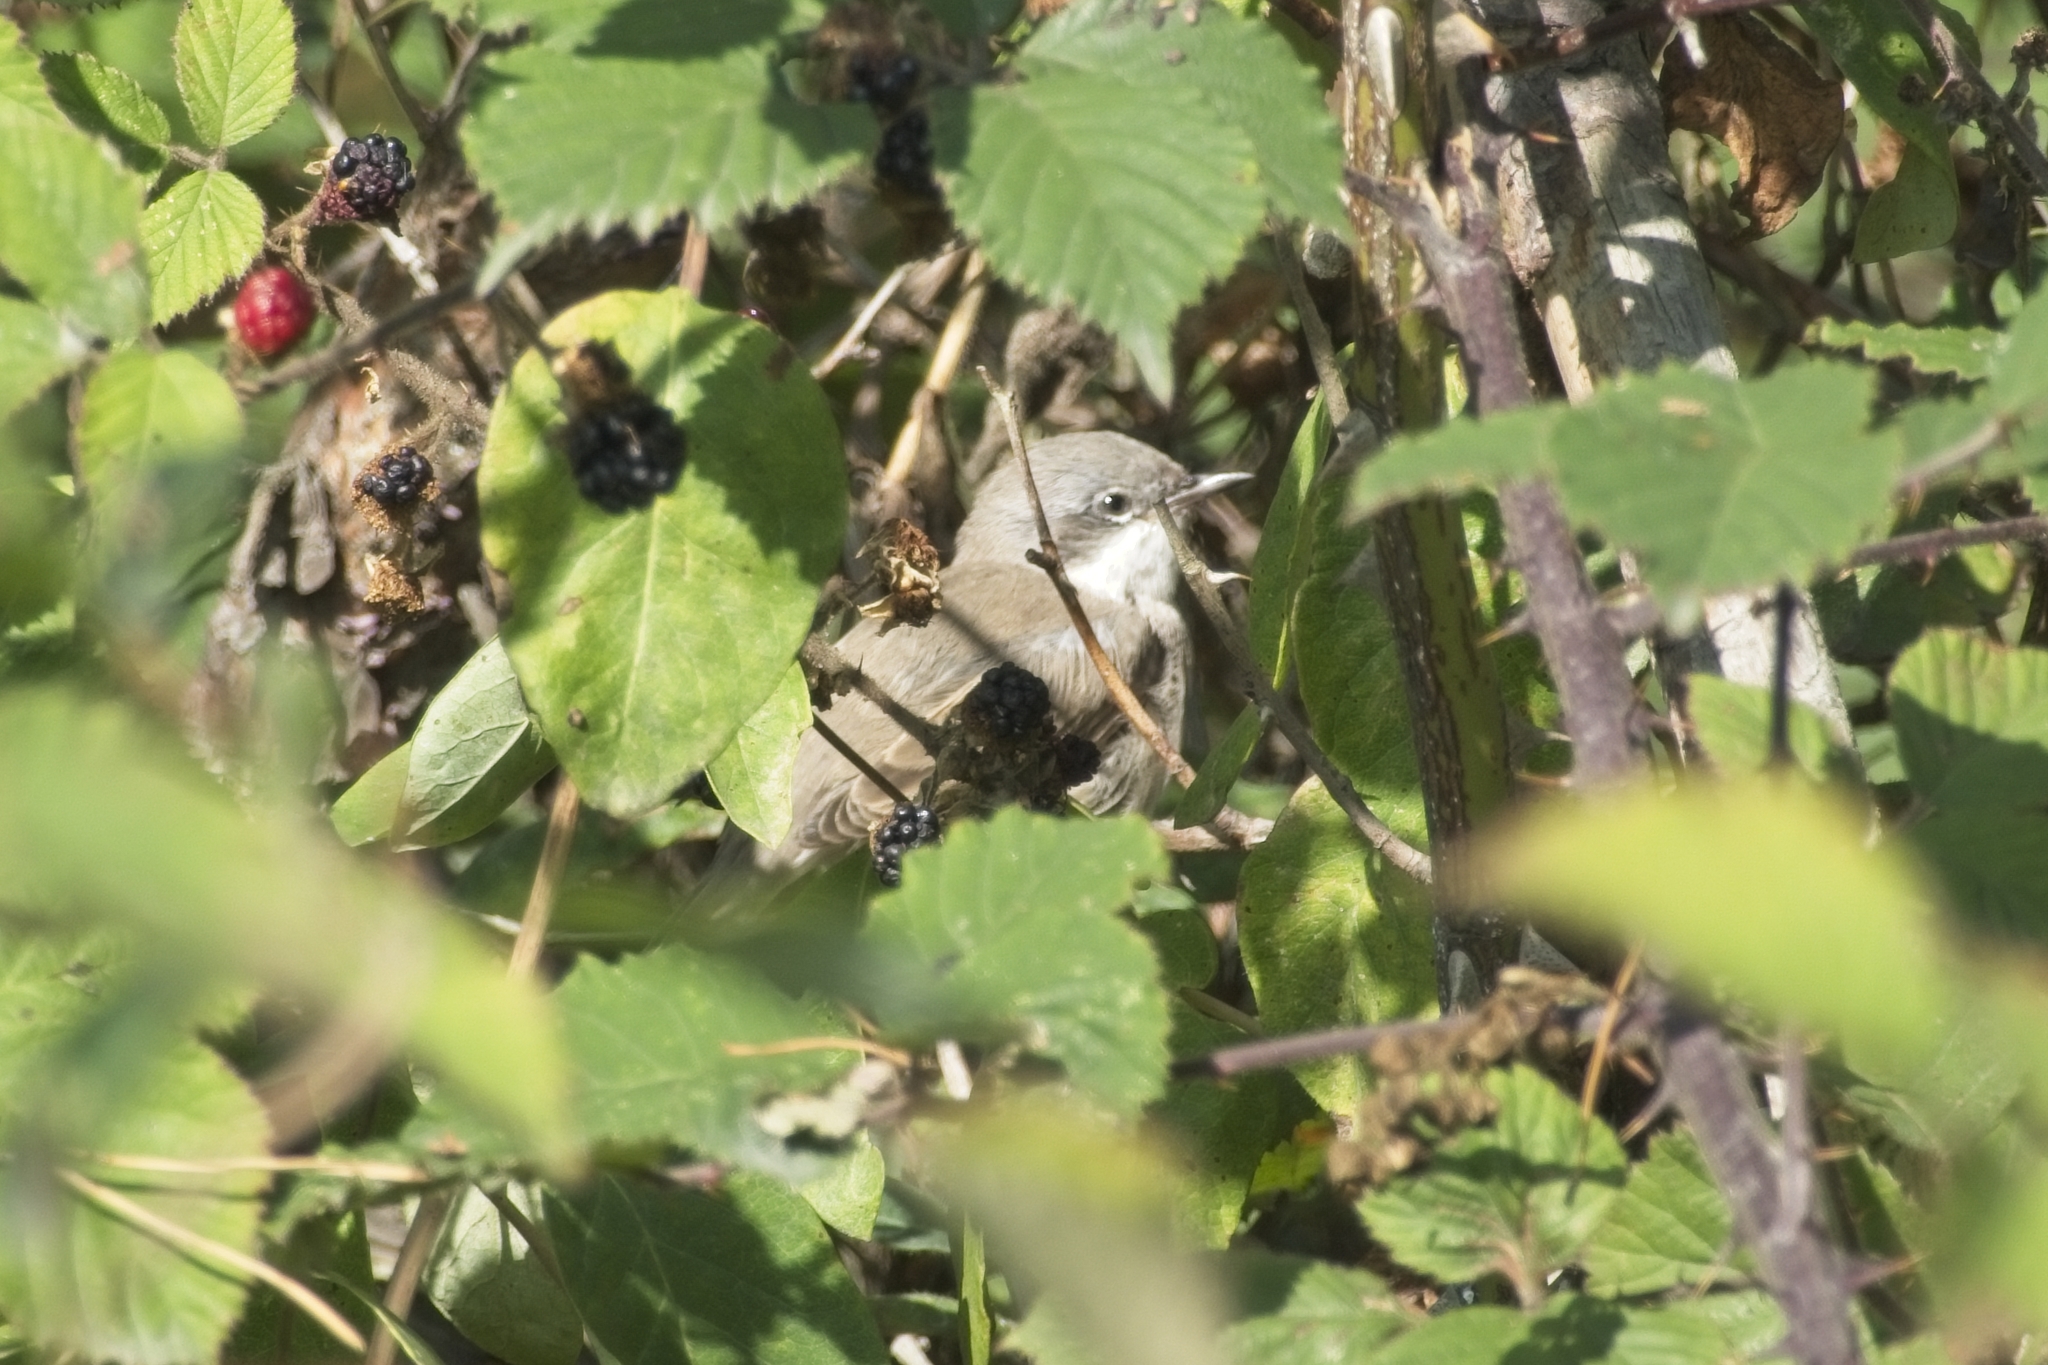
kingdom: Animalia
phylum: Chordata
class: Aves
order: Passeriformes
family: Sylviidae
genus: Sylvia
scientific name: Sylvia curruca
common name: Lesser whitethroat
